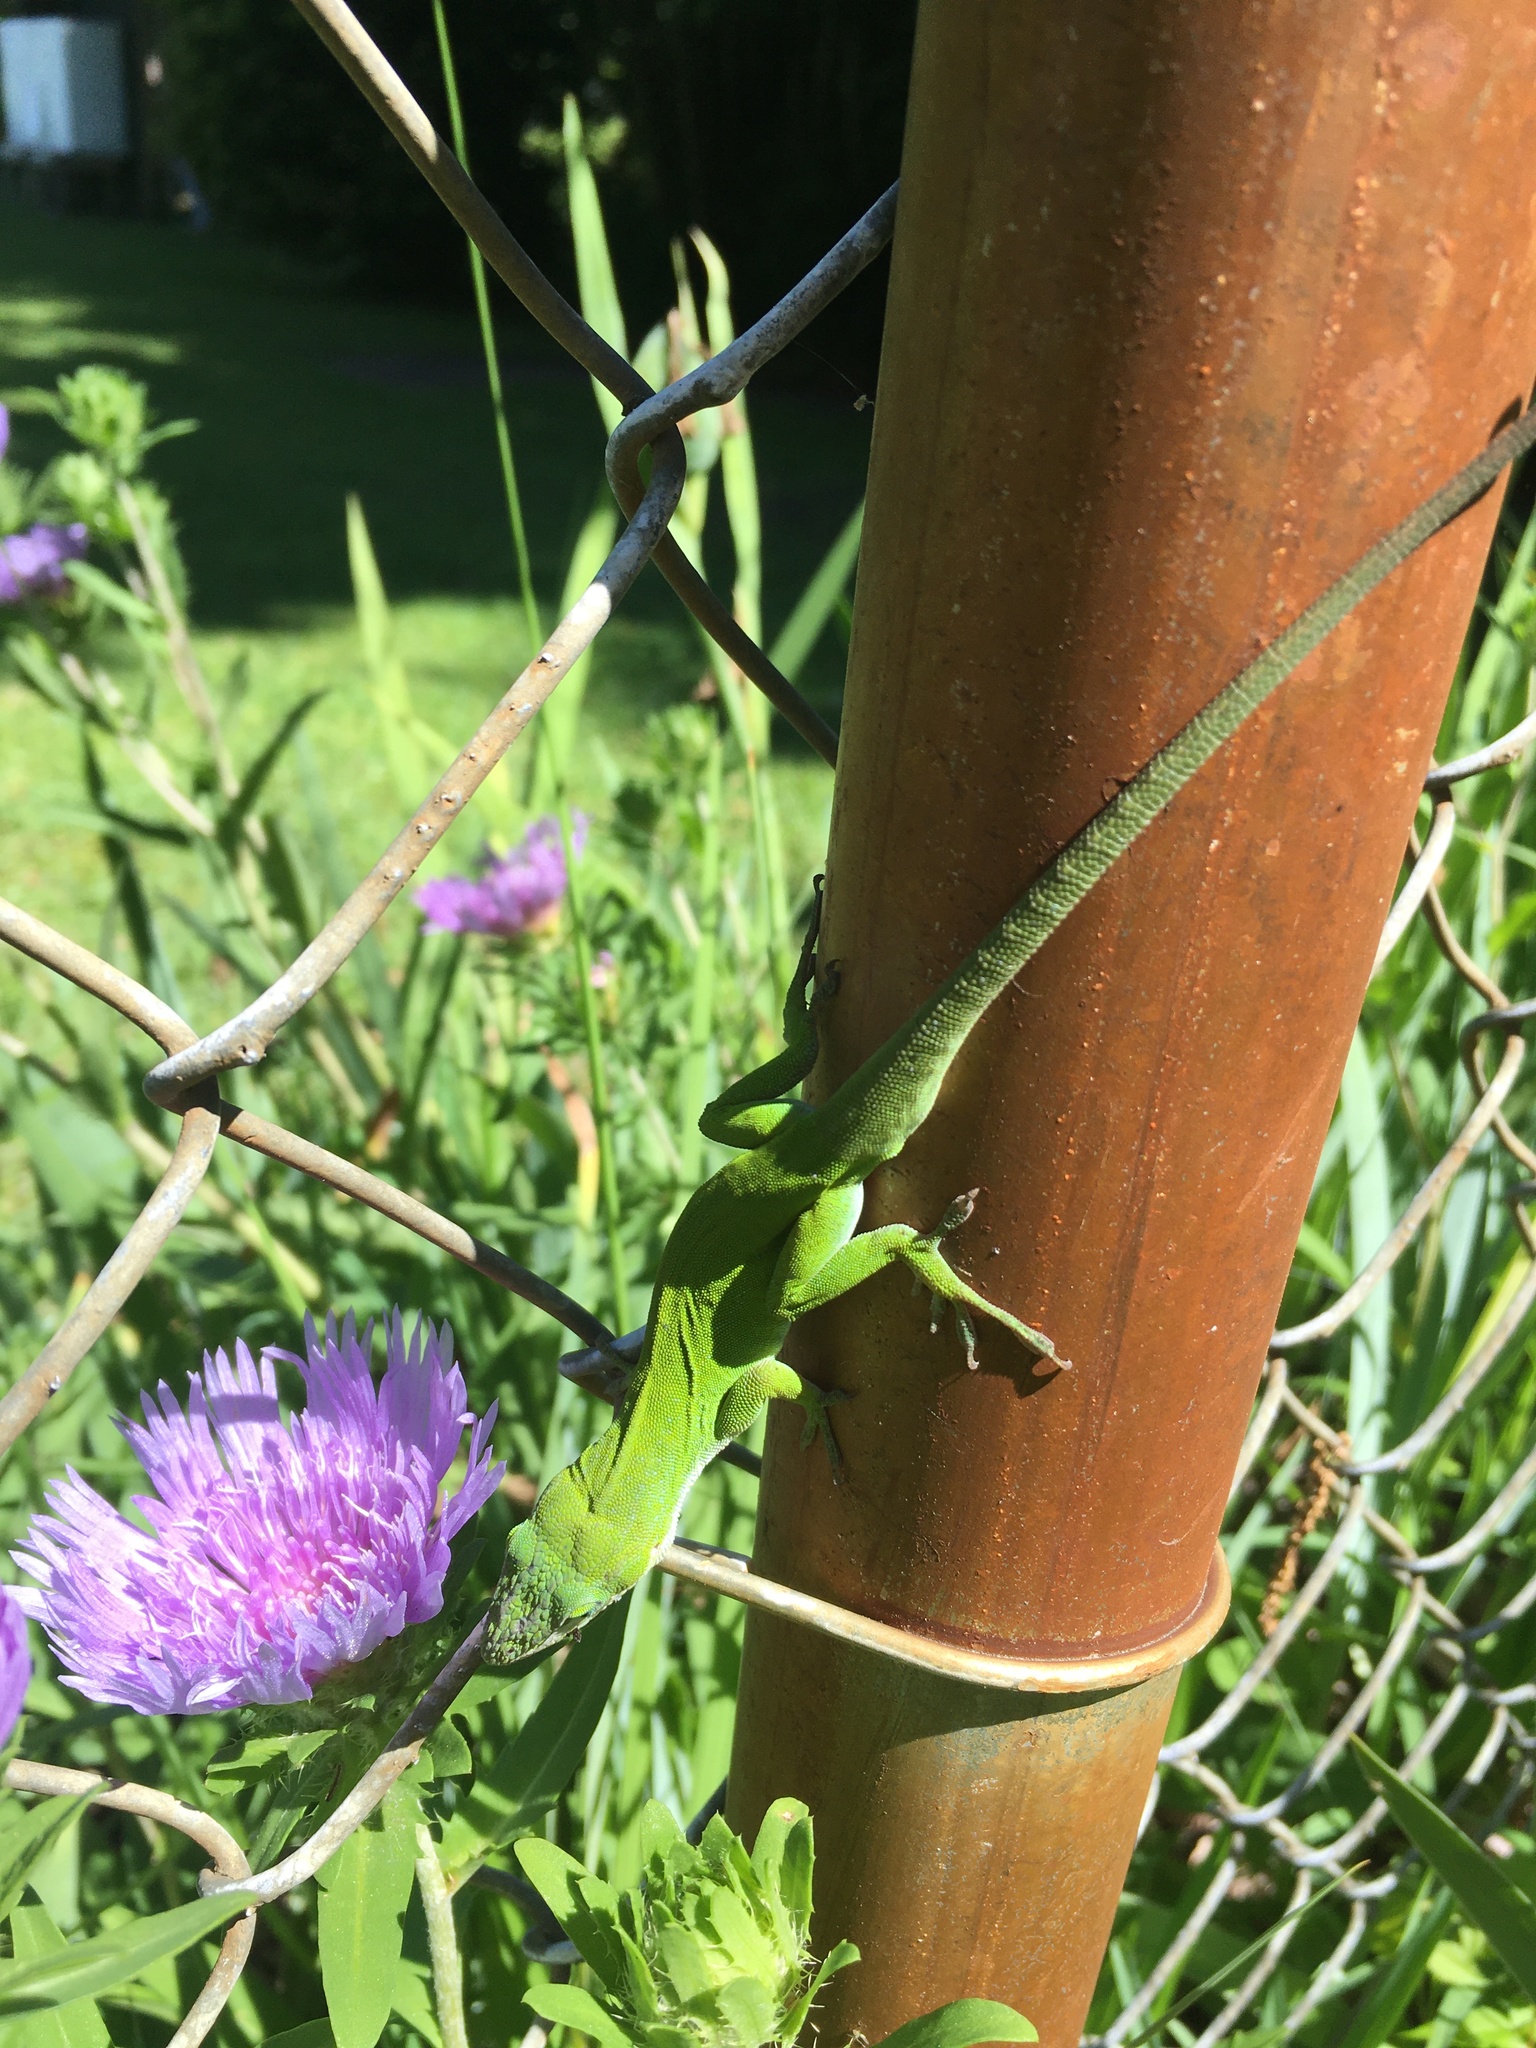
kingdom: Animalia
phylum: Chordata
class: Squamata
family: Dactyloidae
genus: Anolis
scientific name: Anolis carolinensis
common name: Green anole
